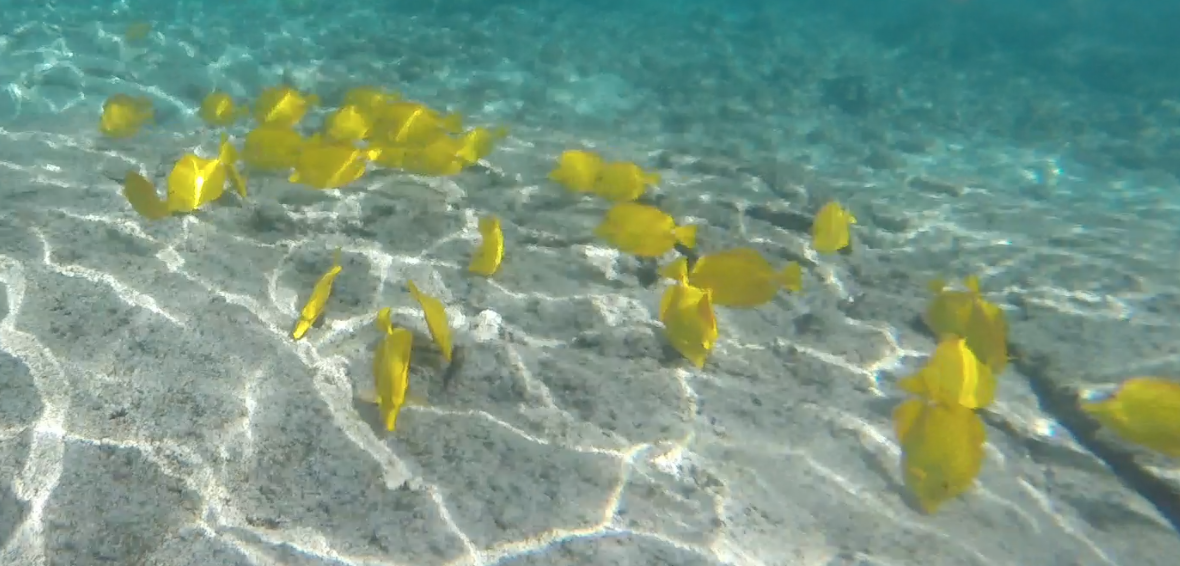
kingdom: Animalia
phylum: Chordata
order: Perciformes
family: Acanthuridae
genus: Zebrasoma
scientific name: Zebrasoma flavescens
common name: Yellow tang
